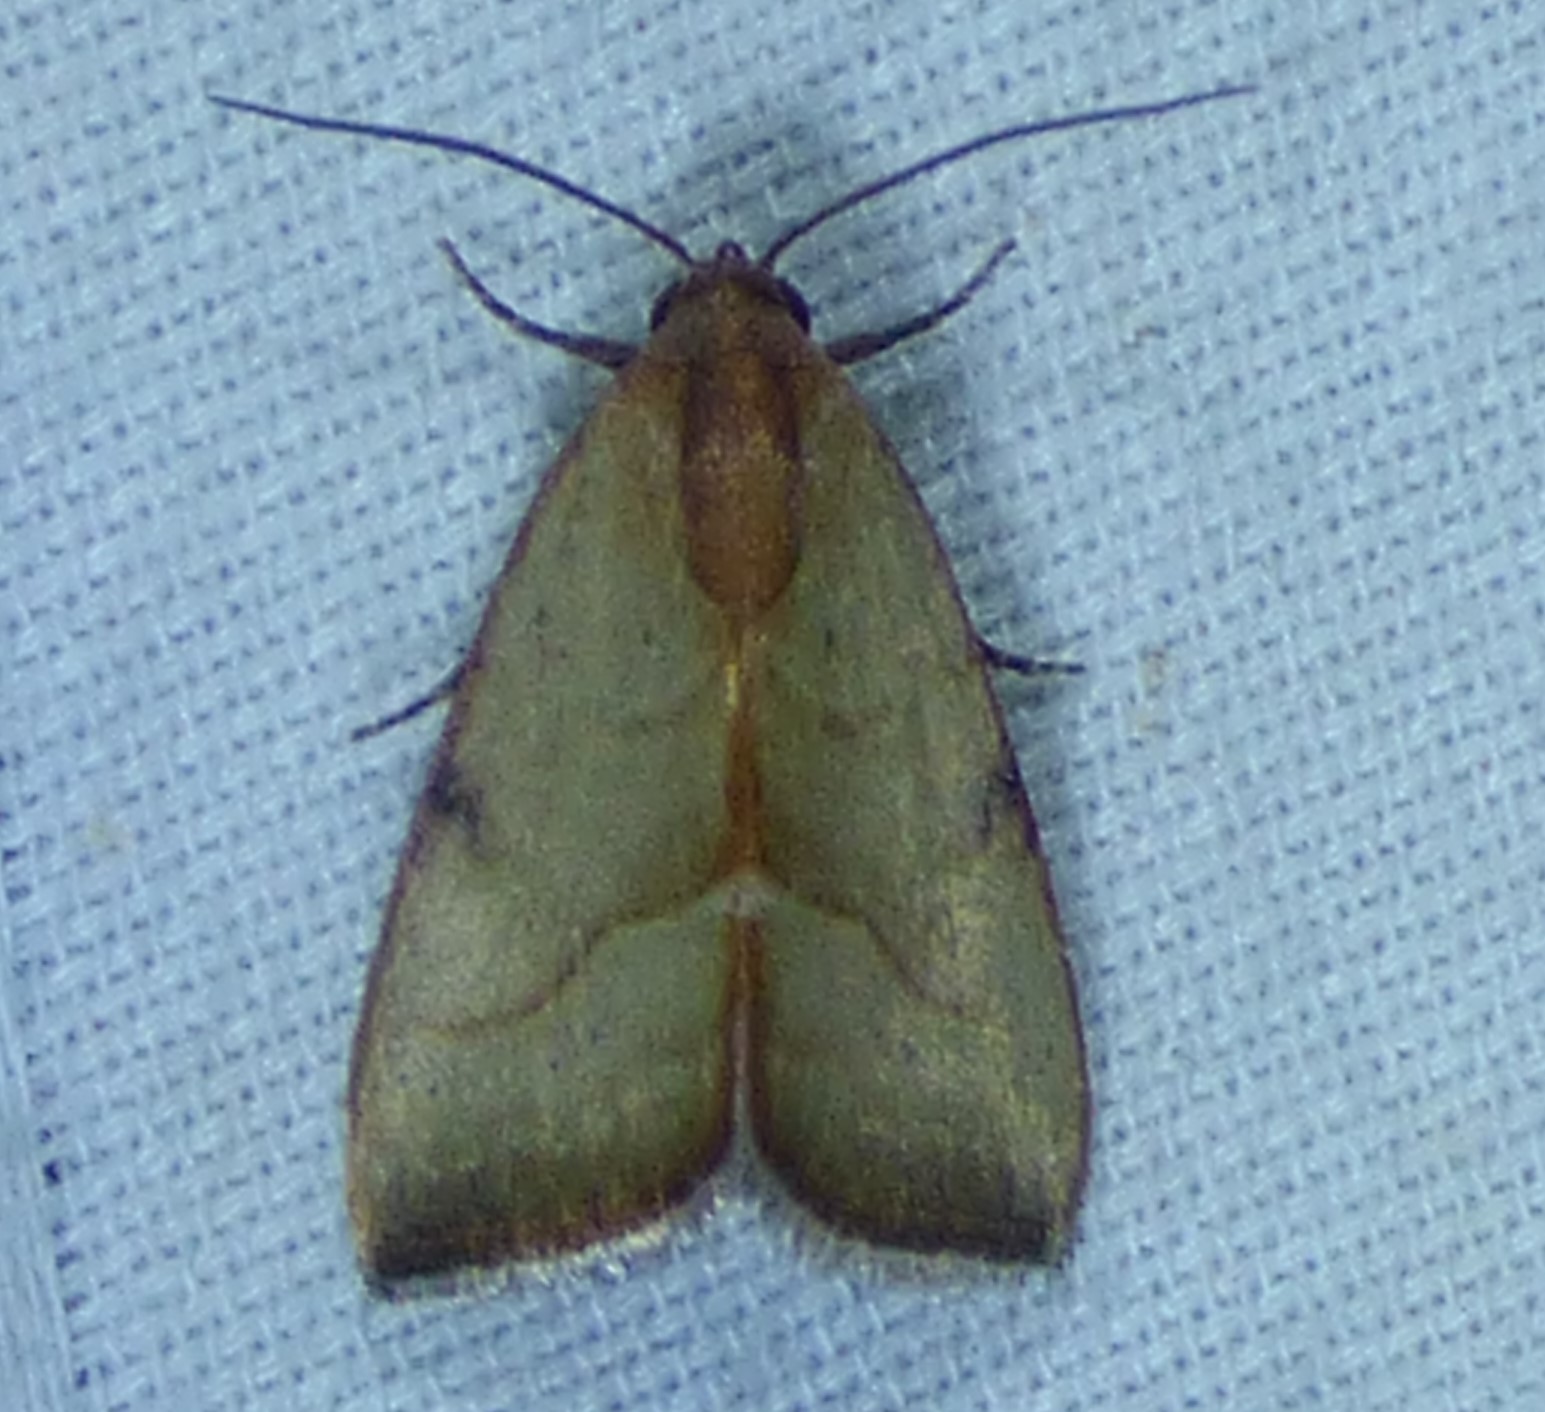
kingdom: Animalia
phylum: Arthropoda
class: Insecta
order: Lepidoptera
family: Noctuidae
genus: Galgula
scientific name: Galgula partita
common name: Wedgeling
